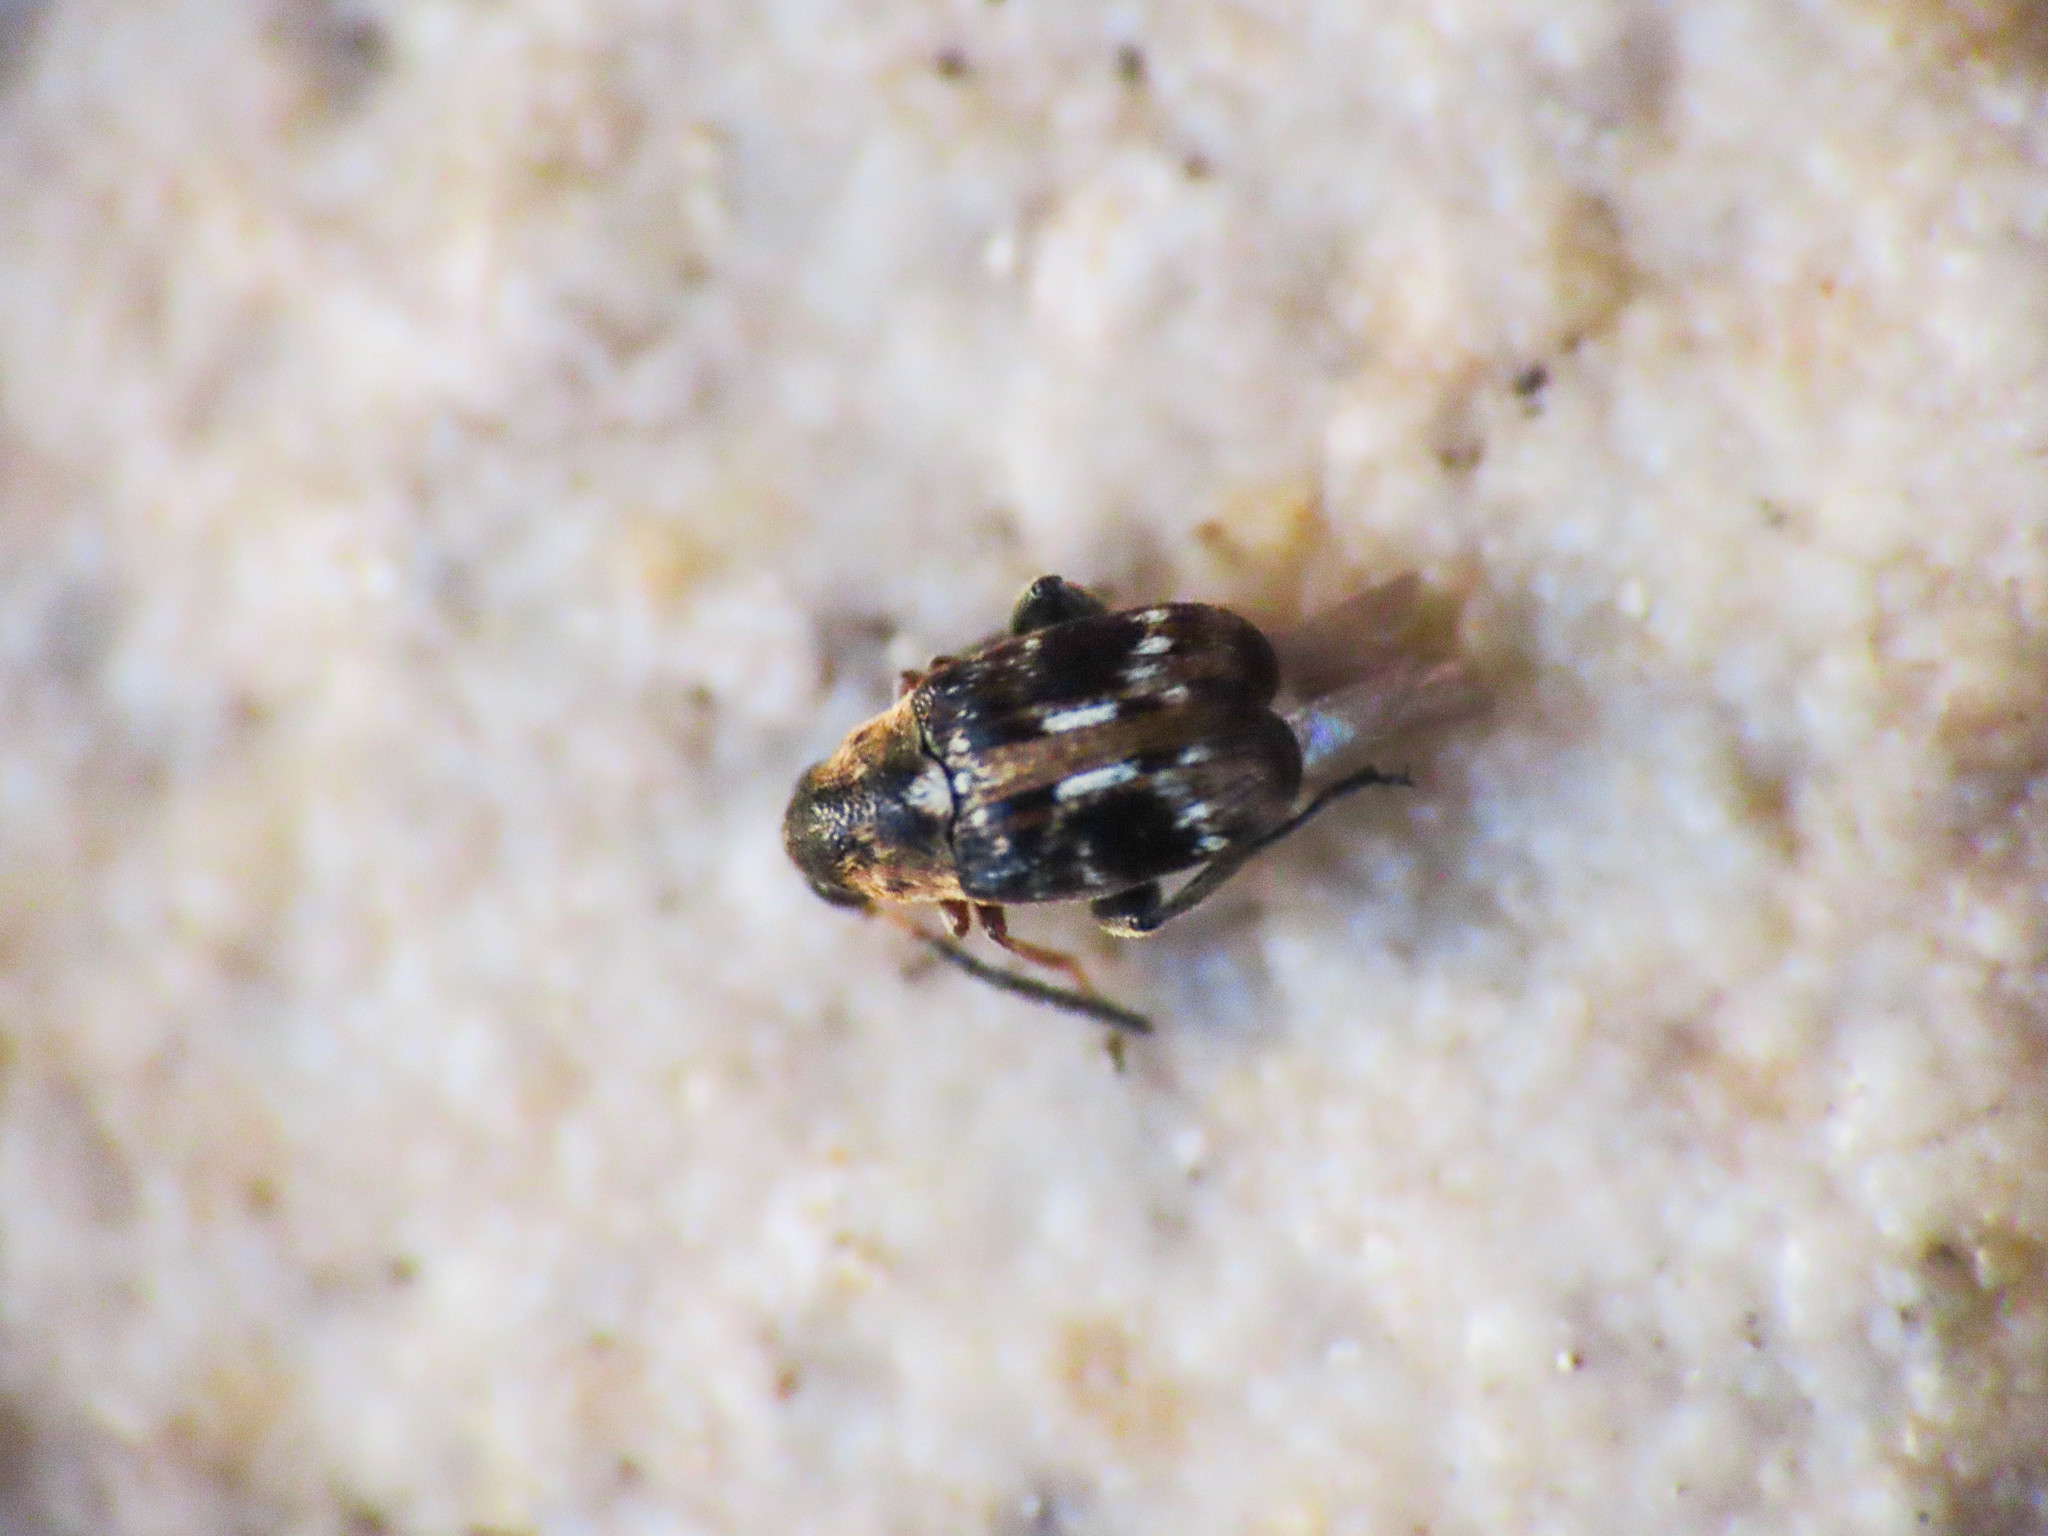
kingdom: Animalia
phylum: Arthropoda
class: Insecta
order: Coleoptera
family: Chrysomelidae
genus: Bruchidius
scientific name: Bruchidius bimaculatus
